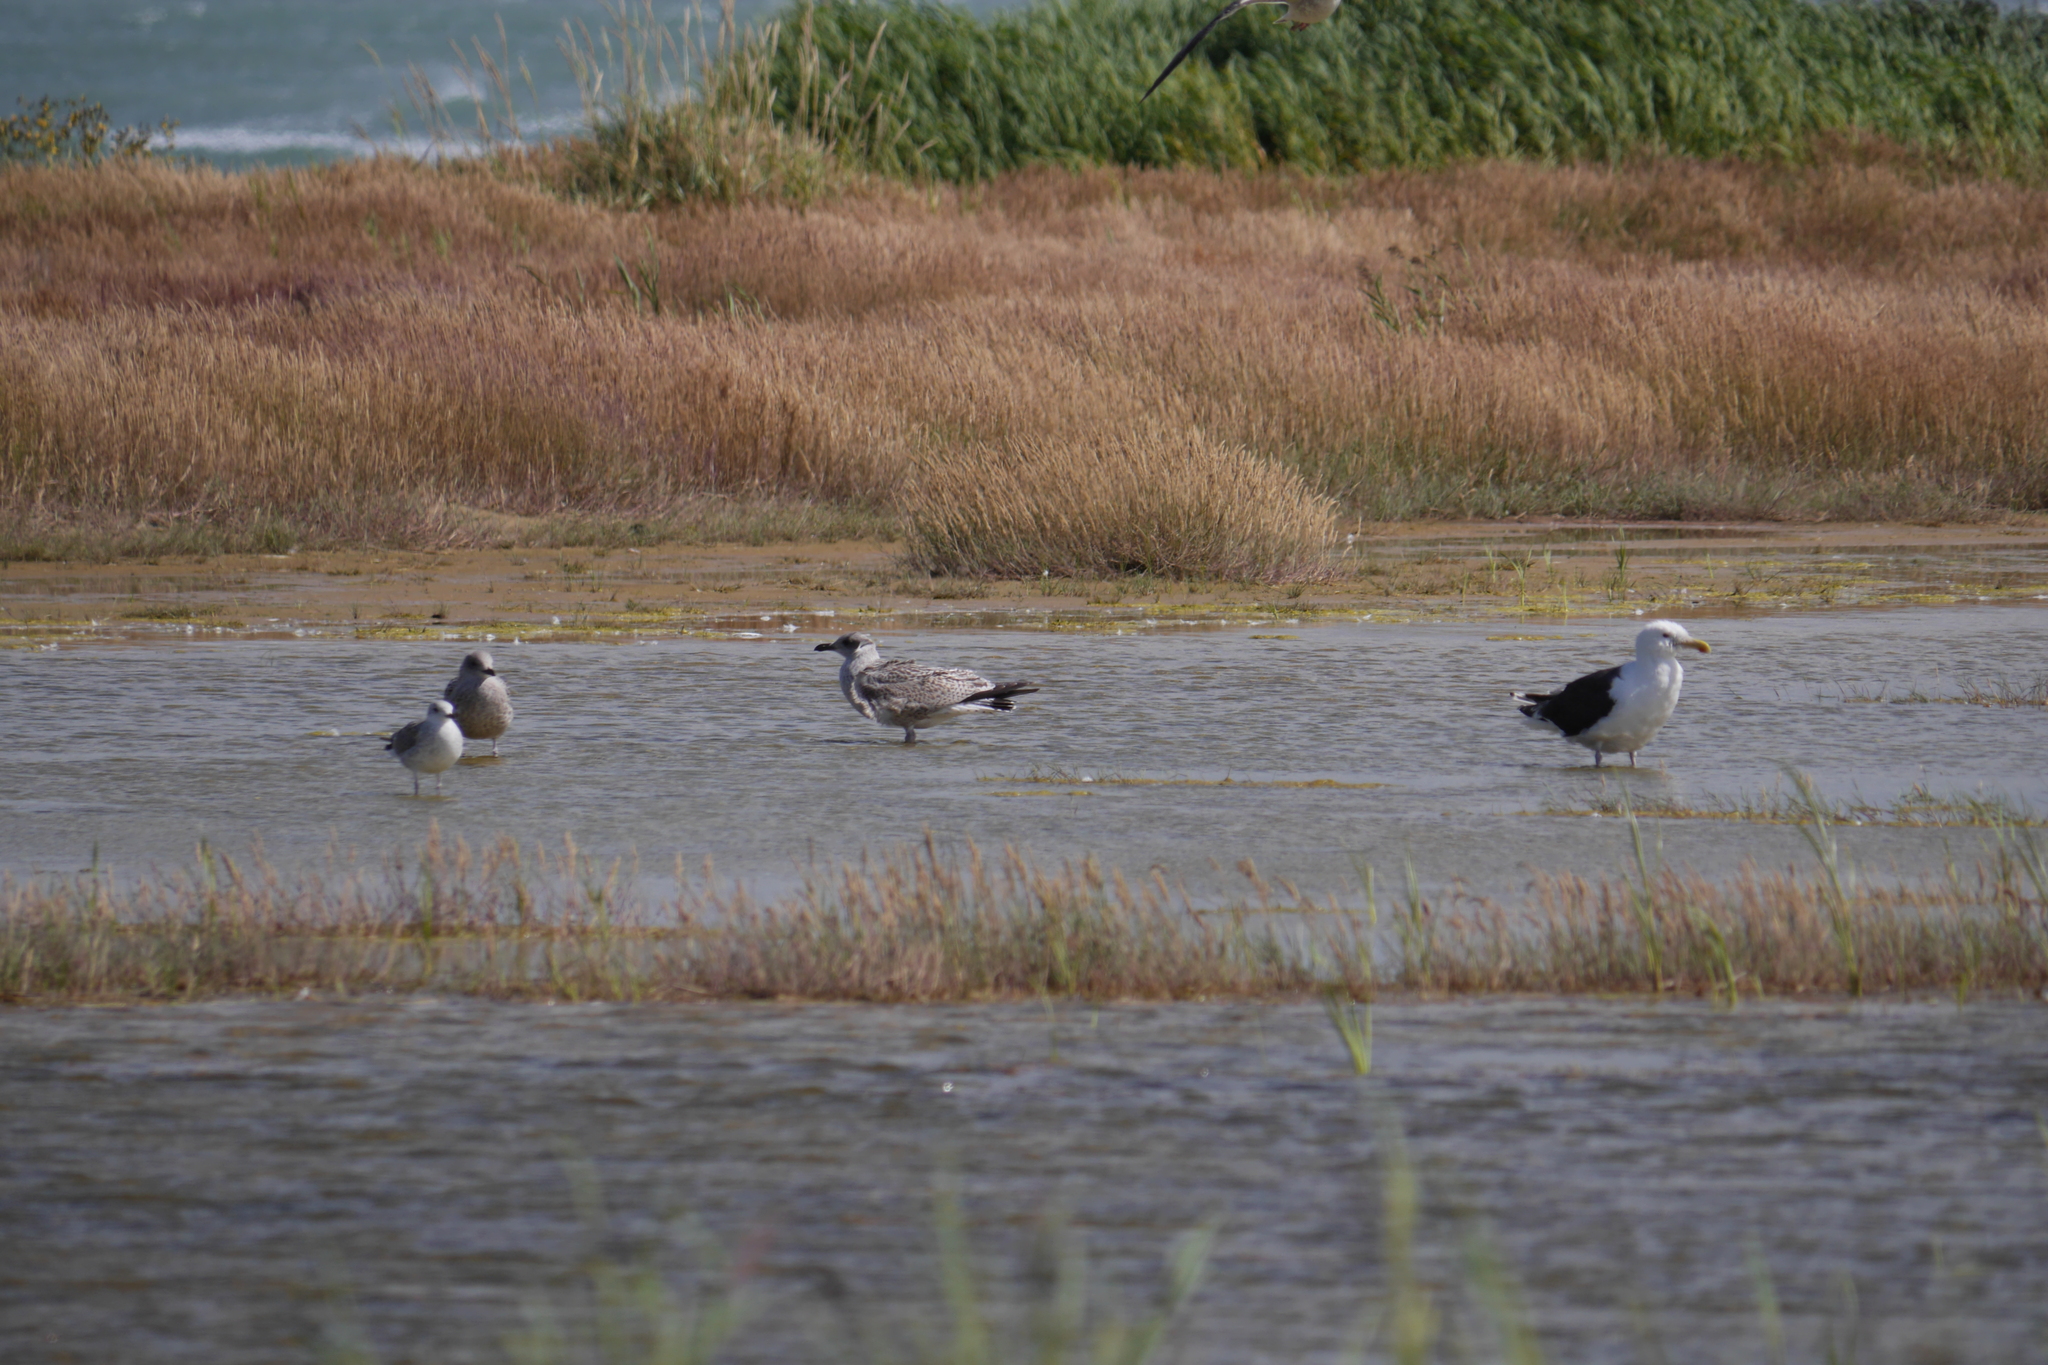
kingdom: Animalia
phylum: Chordata
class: Aves
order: Charadriiformes
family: Laridae
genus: Larus
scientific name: Larus marinus
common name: Great black-backed gull
